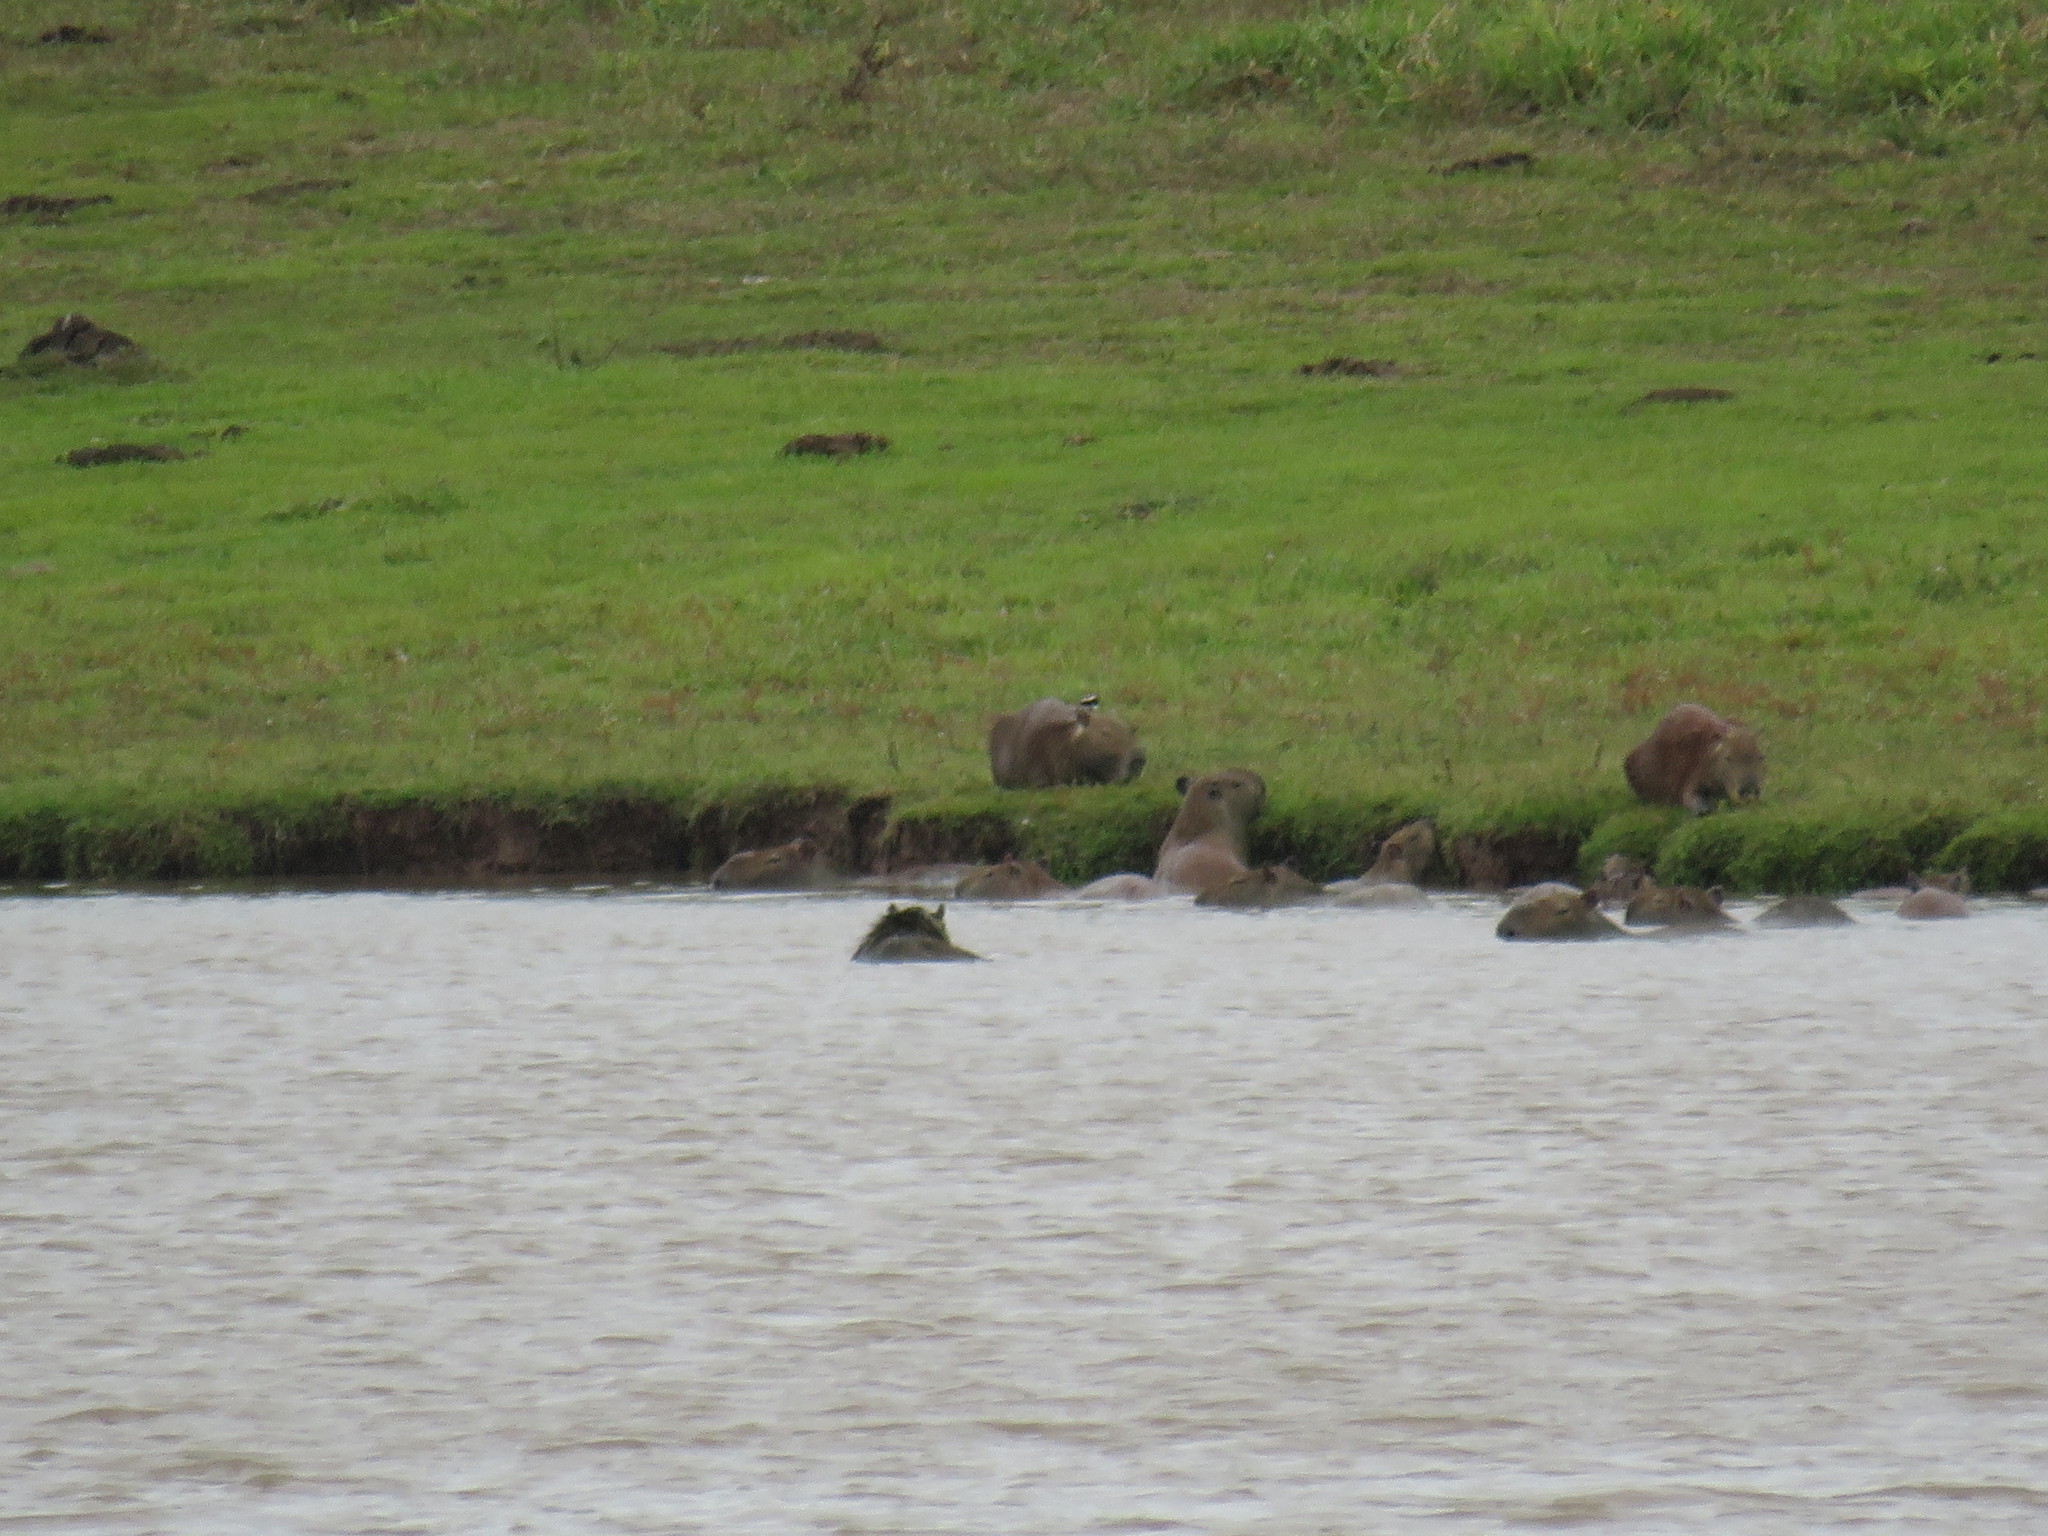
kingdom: Animalia
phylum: Chordata
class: Mammalia
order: Rodentia
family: Caviidae
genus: Hydrochoerus
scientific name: Hydrochoerus hydrochaeris
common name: Capybara
